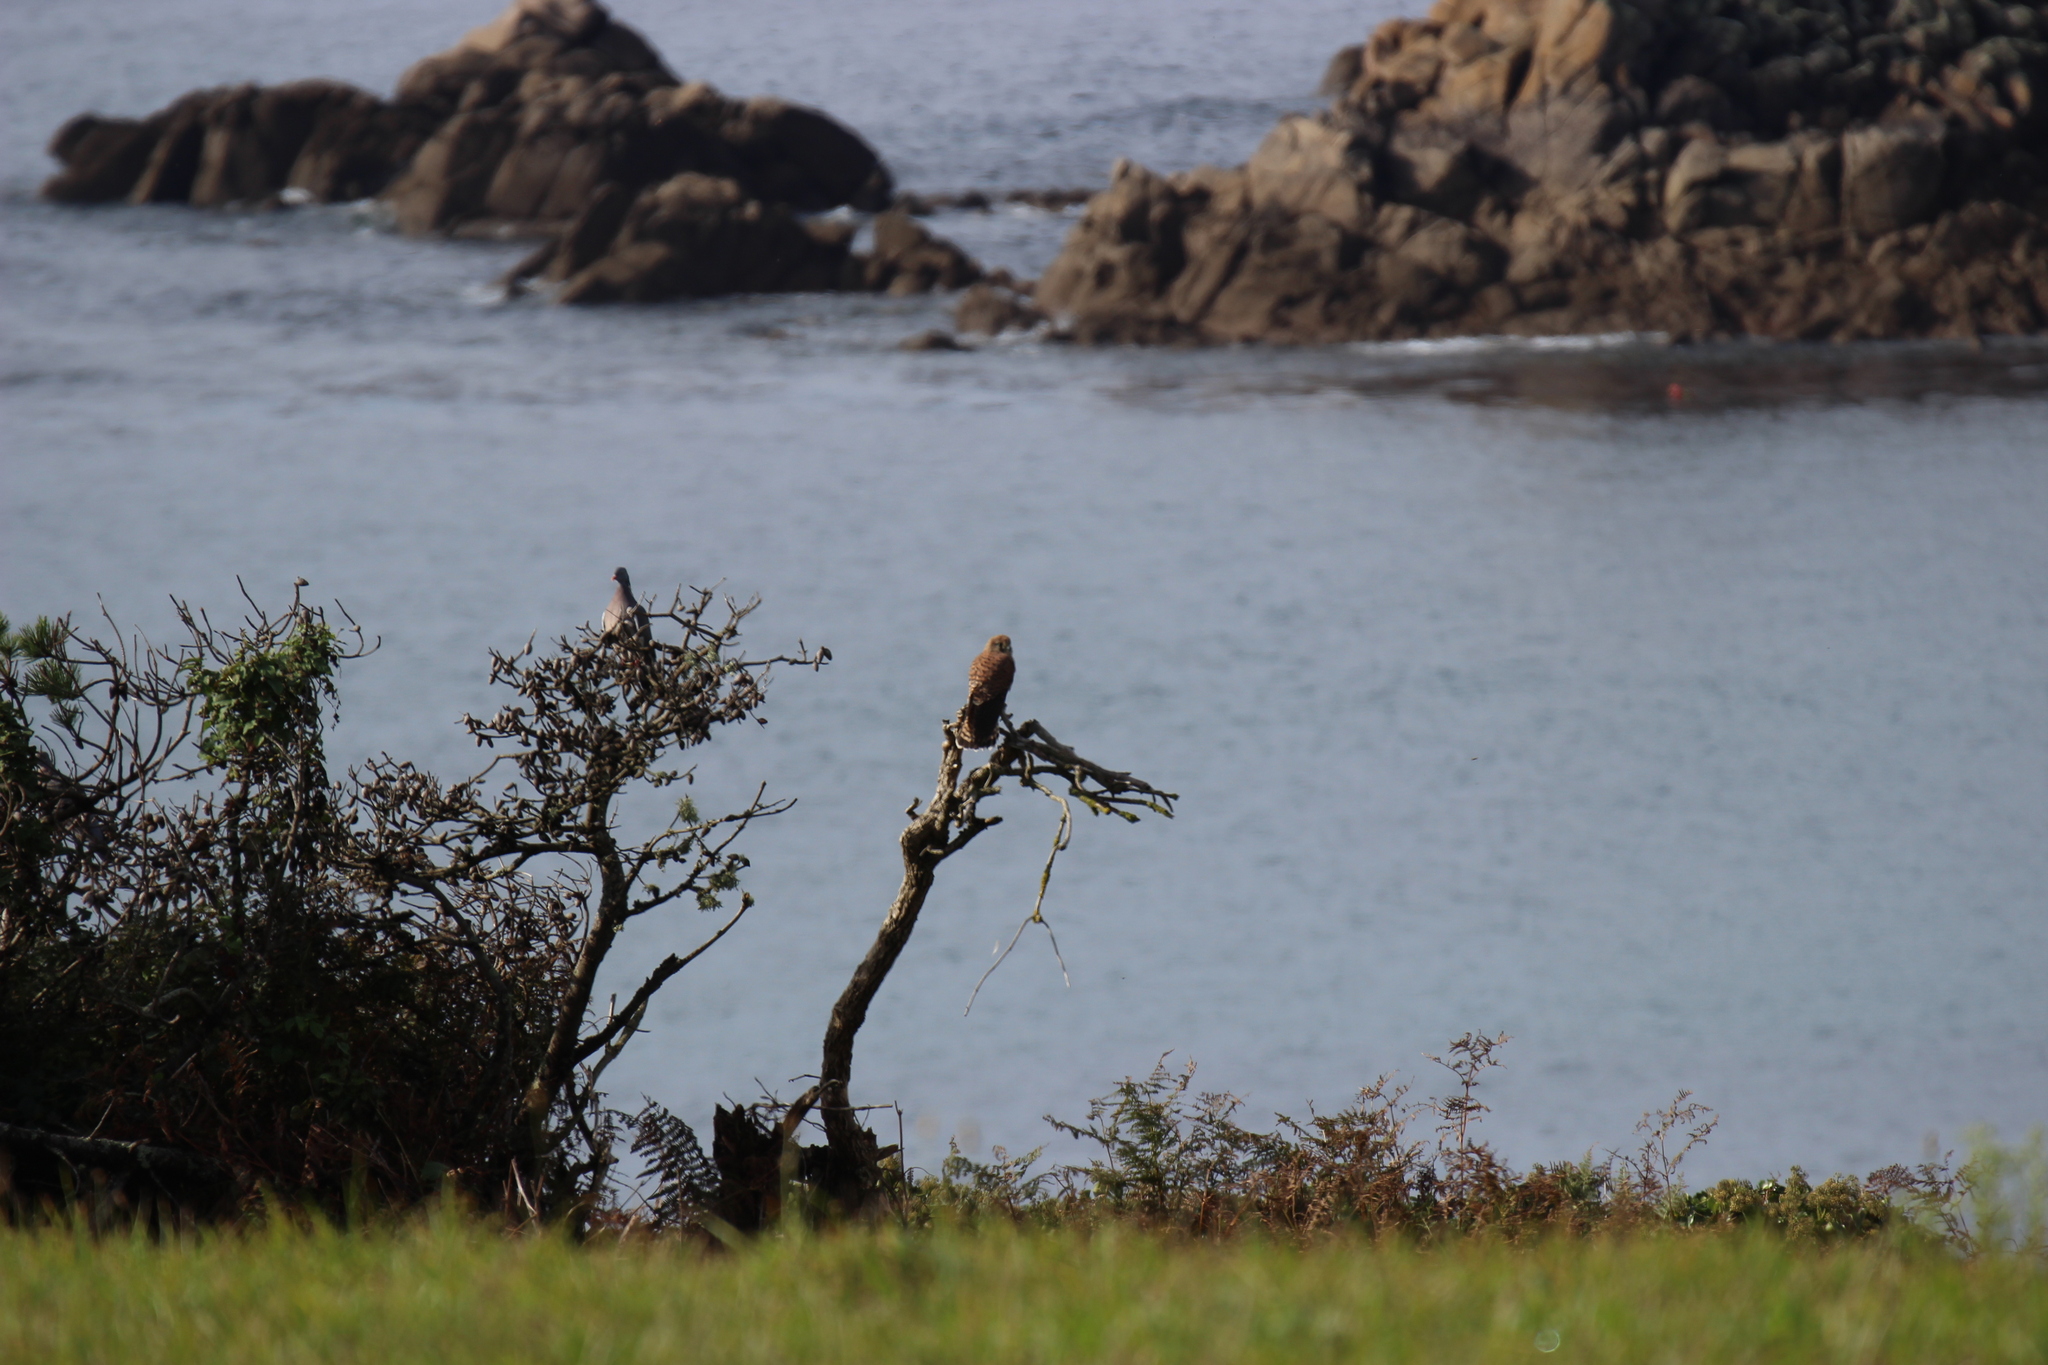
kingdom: Animalia
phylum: Chordata
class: Aves
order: Falconiformes
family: Falconidae
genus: Falco
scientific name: Falco tinnunculus
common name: Common kestrel
